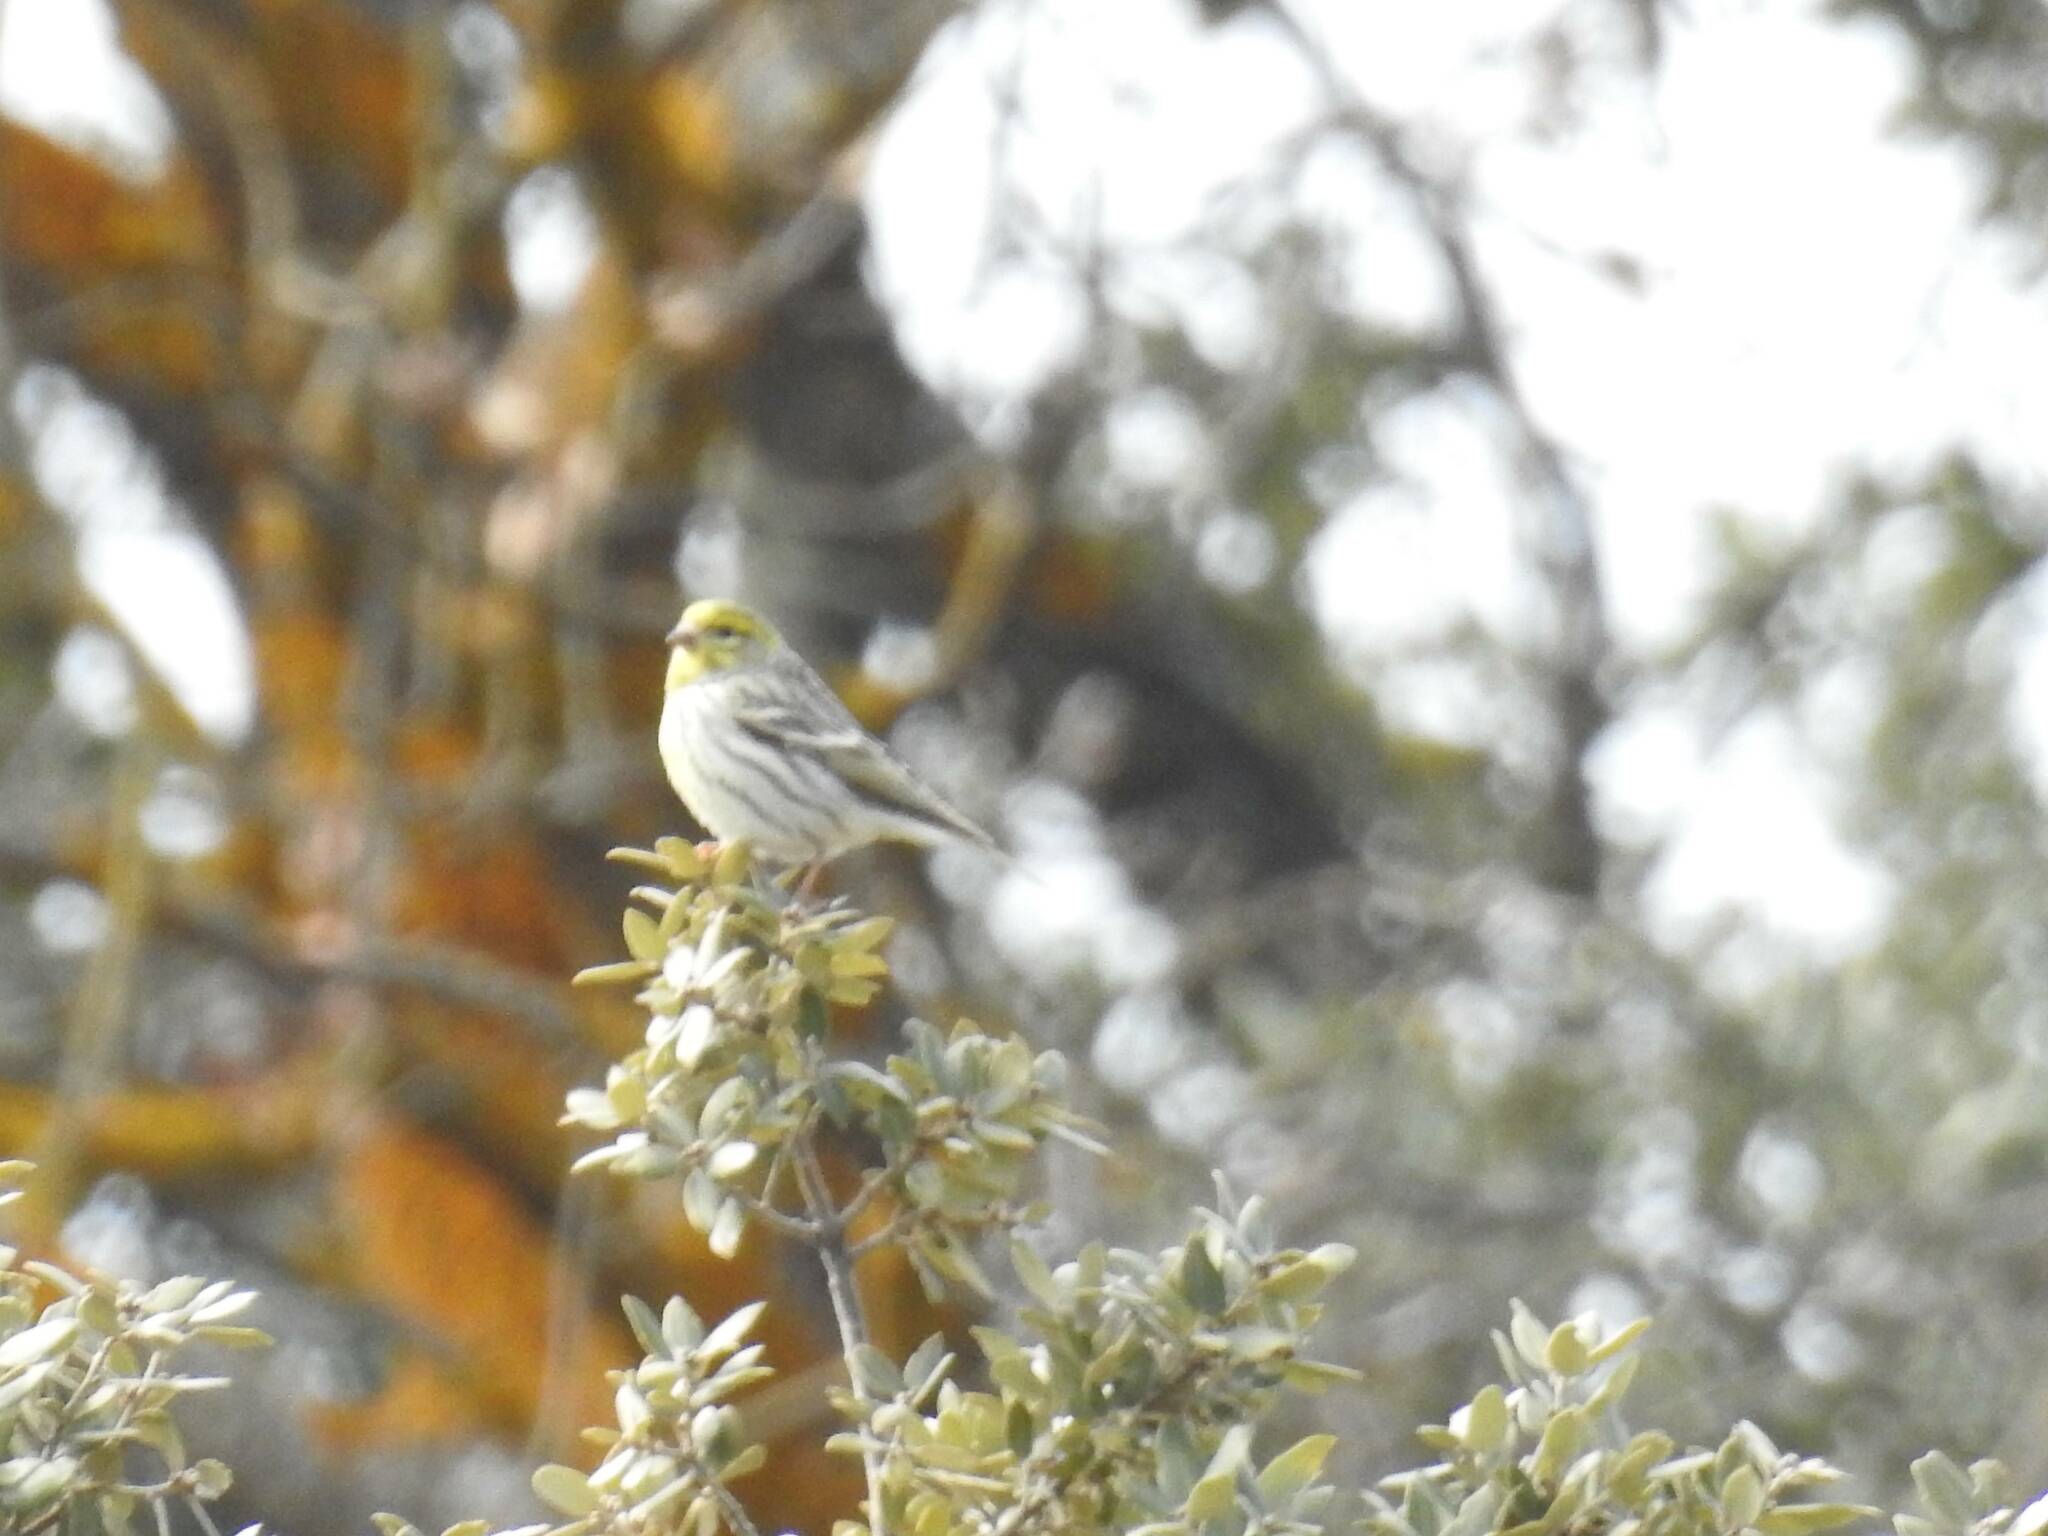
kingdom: Animalia
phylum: Chordata
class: Aves
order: Passeriformes
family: Fringillidae
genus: Serinus
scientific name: Serinus serinus
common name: European serin
